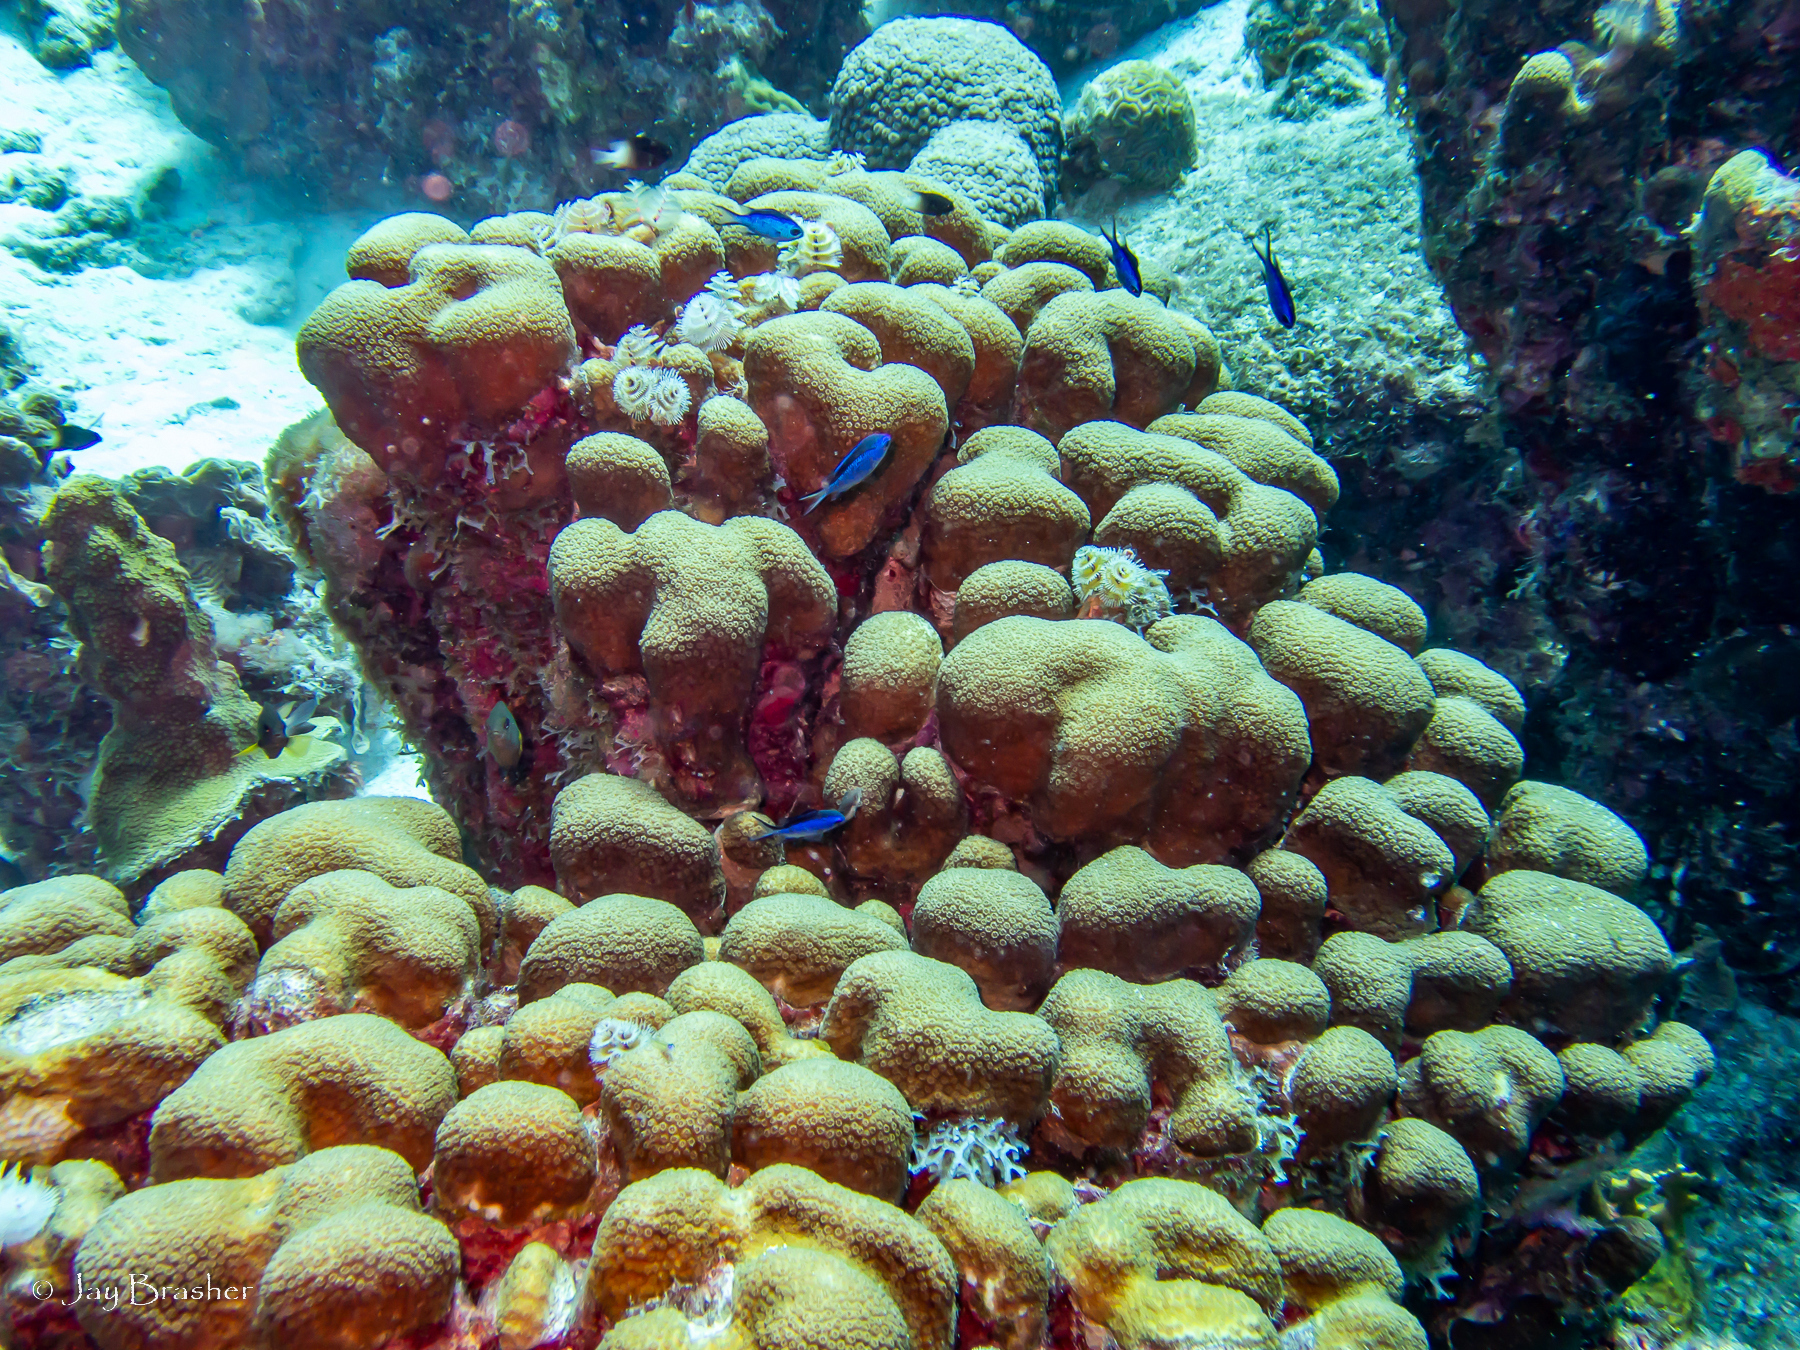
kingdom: Animalia
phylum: Cnidaria
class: Anthozoa
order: Scleractinia
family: Merulinidae
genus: Orbicella
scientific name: Orbicella annularis
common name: Boulder star coral
